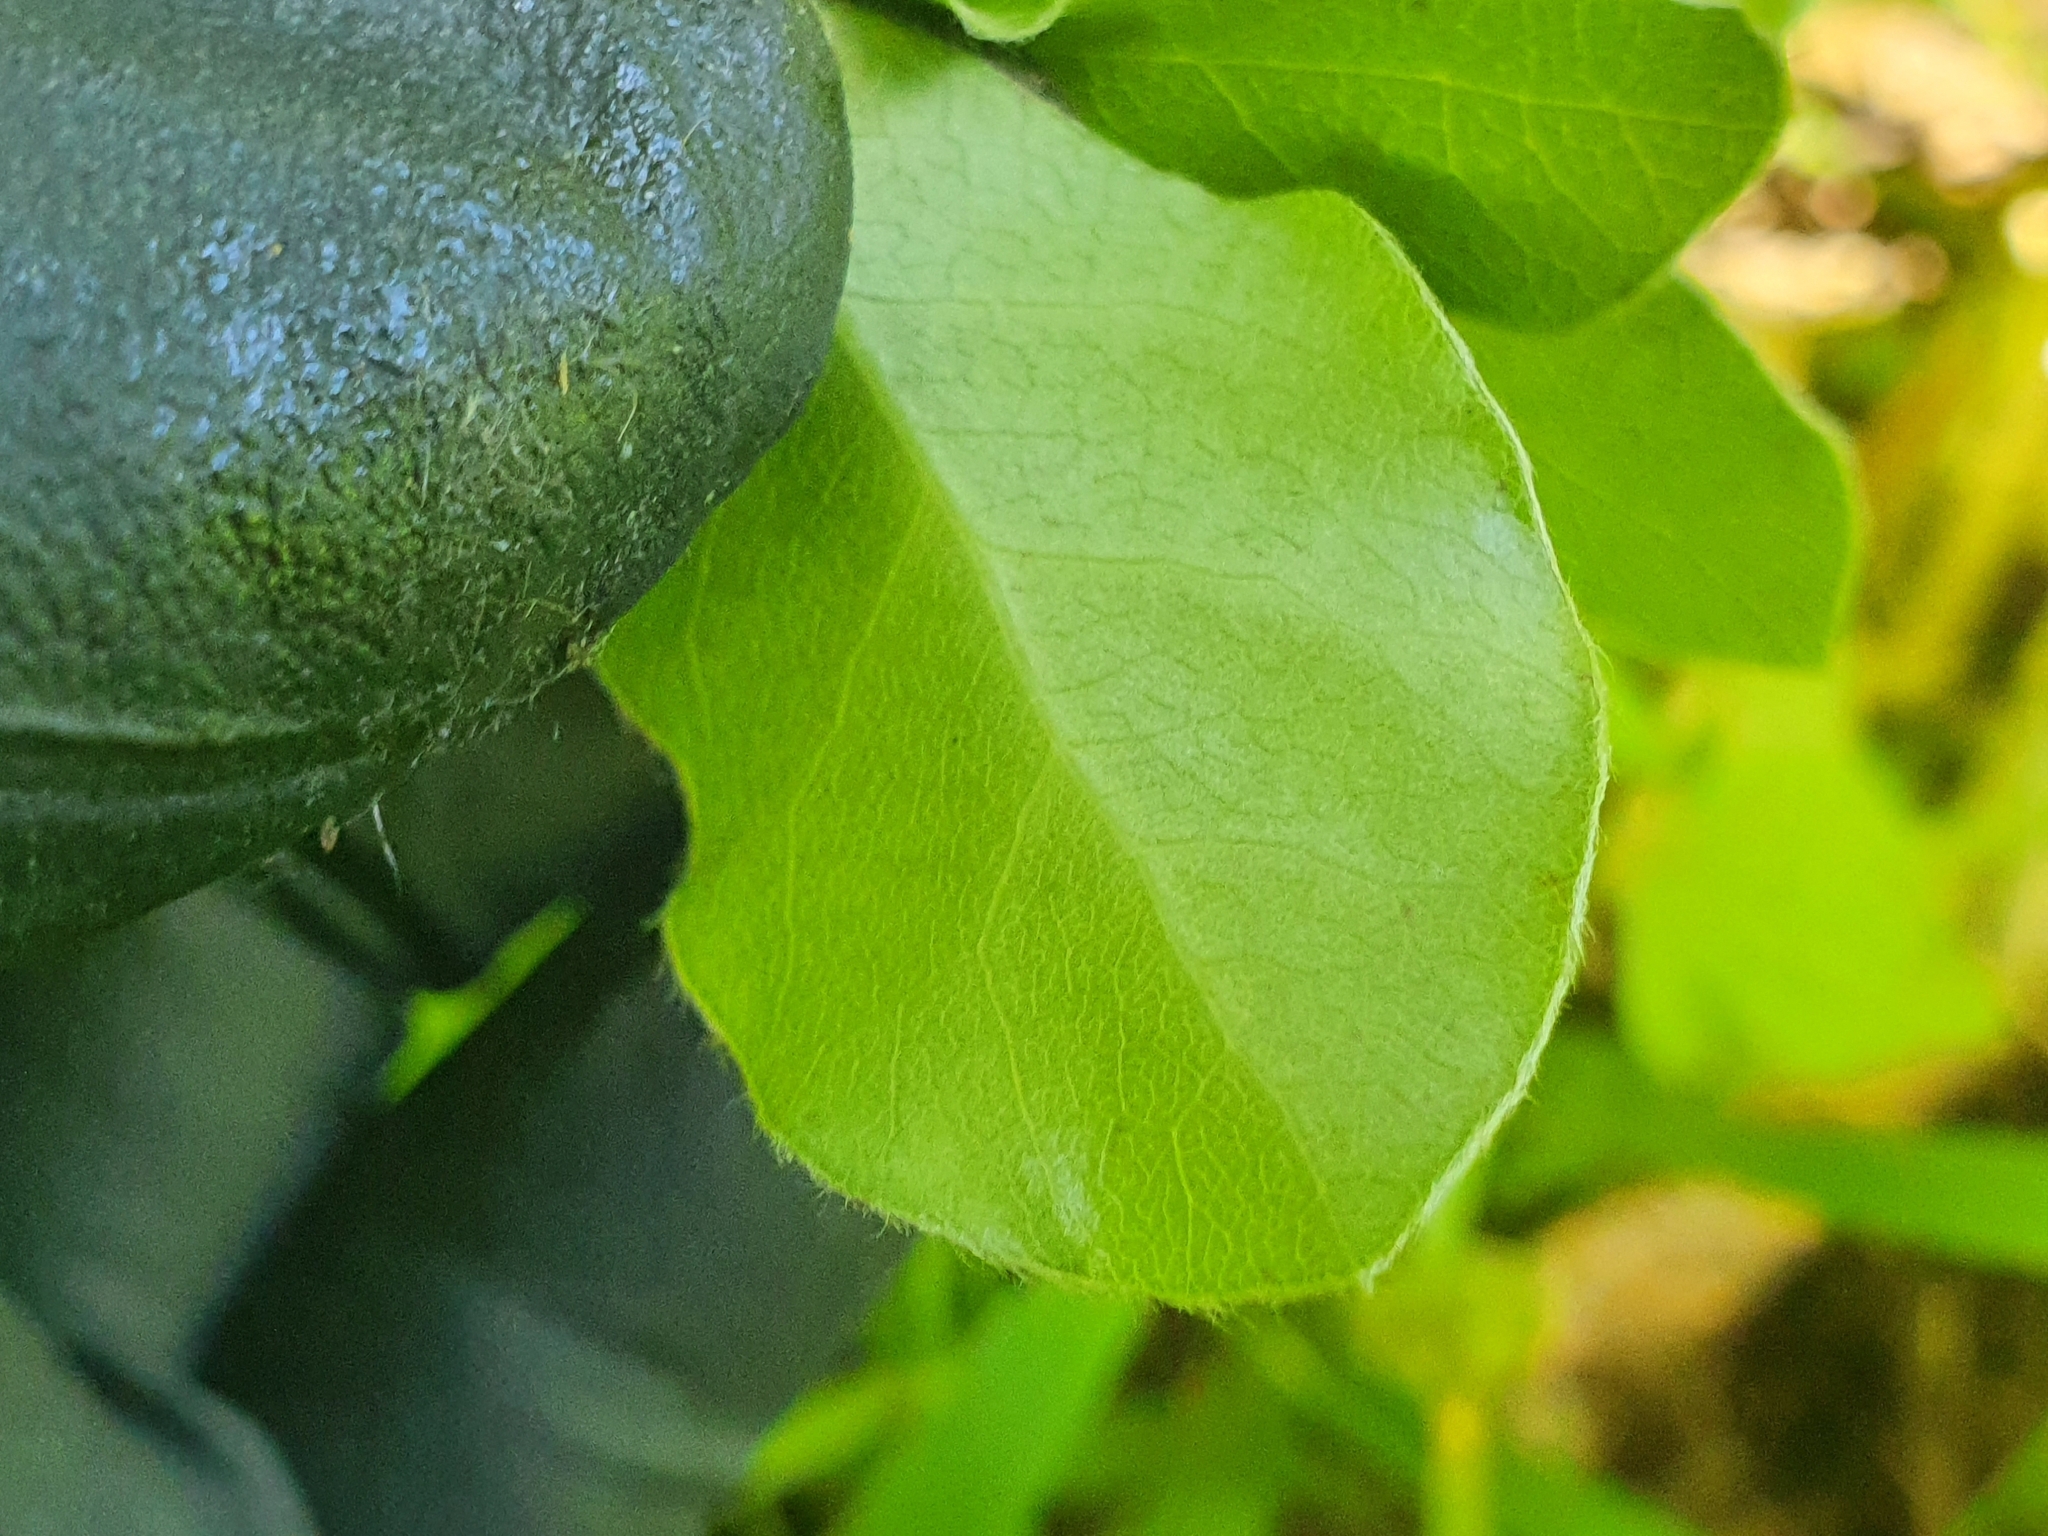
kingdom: Plantae
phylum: Tracheophyta
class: Magnoliopsida
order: Apiales
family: Pittosporaceae
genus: Pittosporum
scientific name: Pittosporum tenuifolium
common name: Kohuhu
